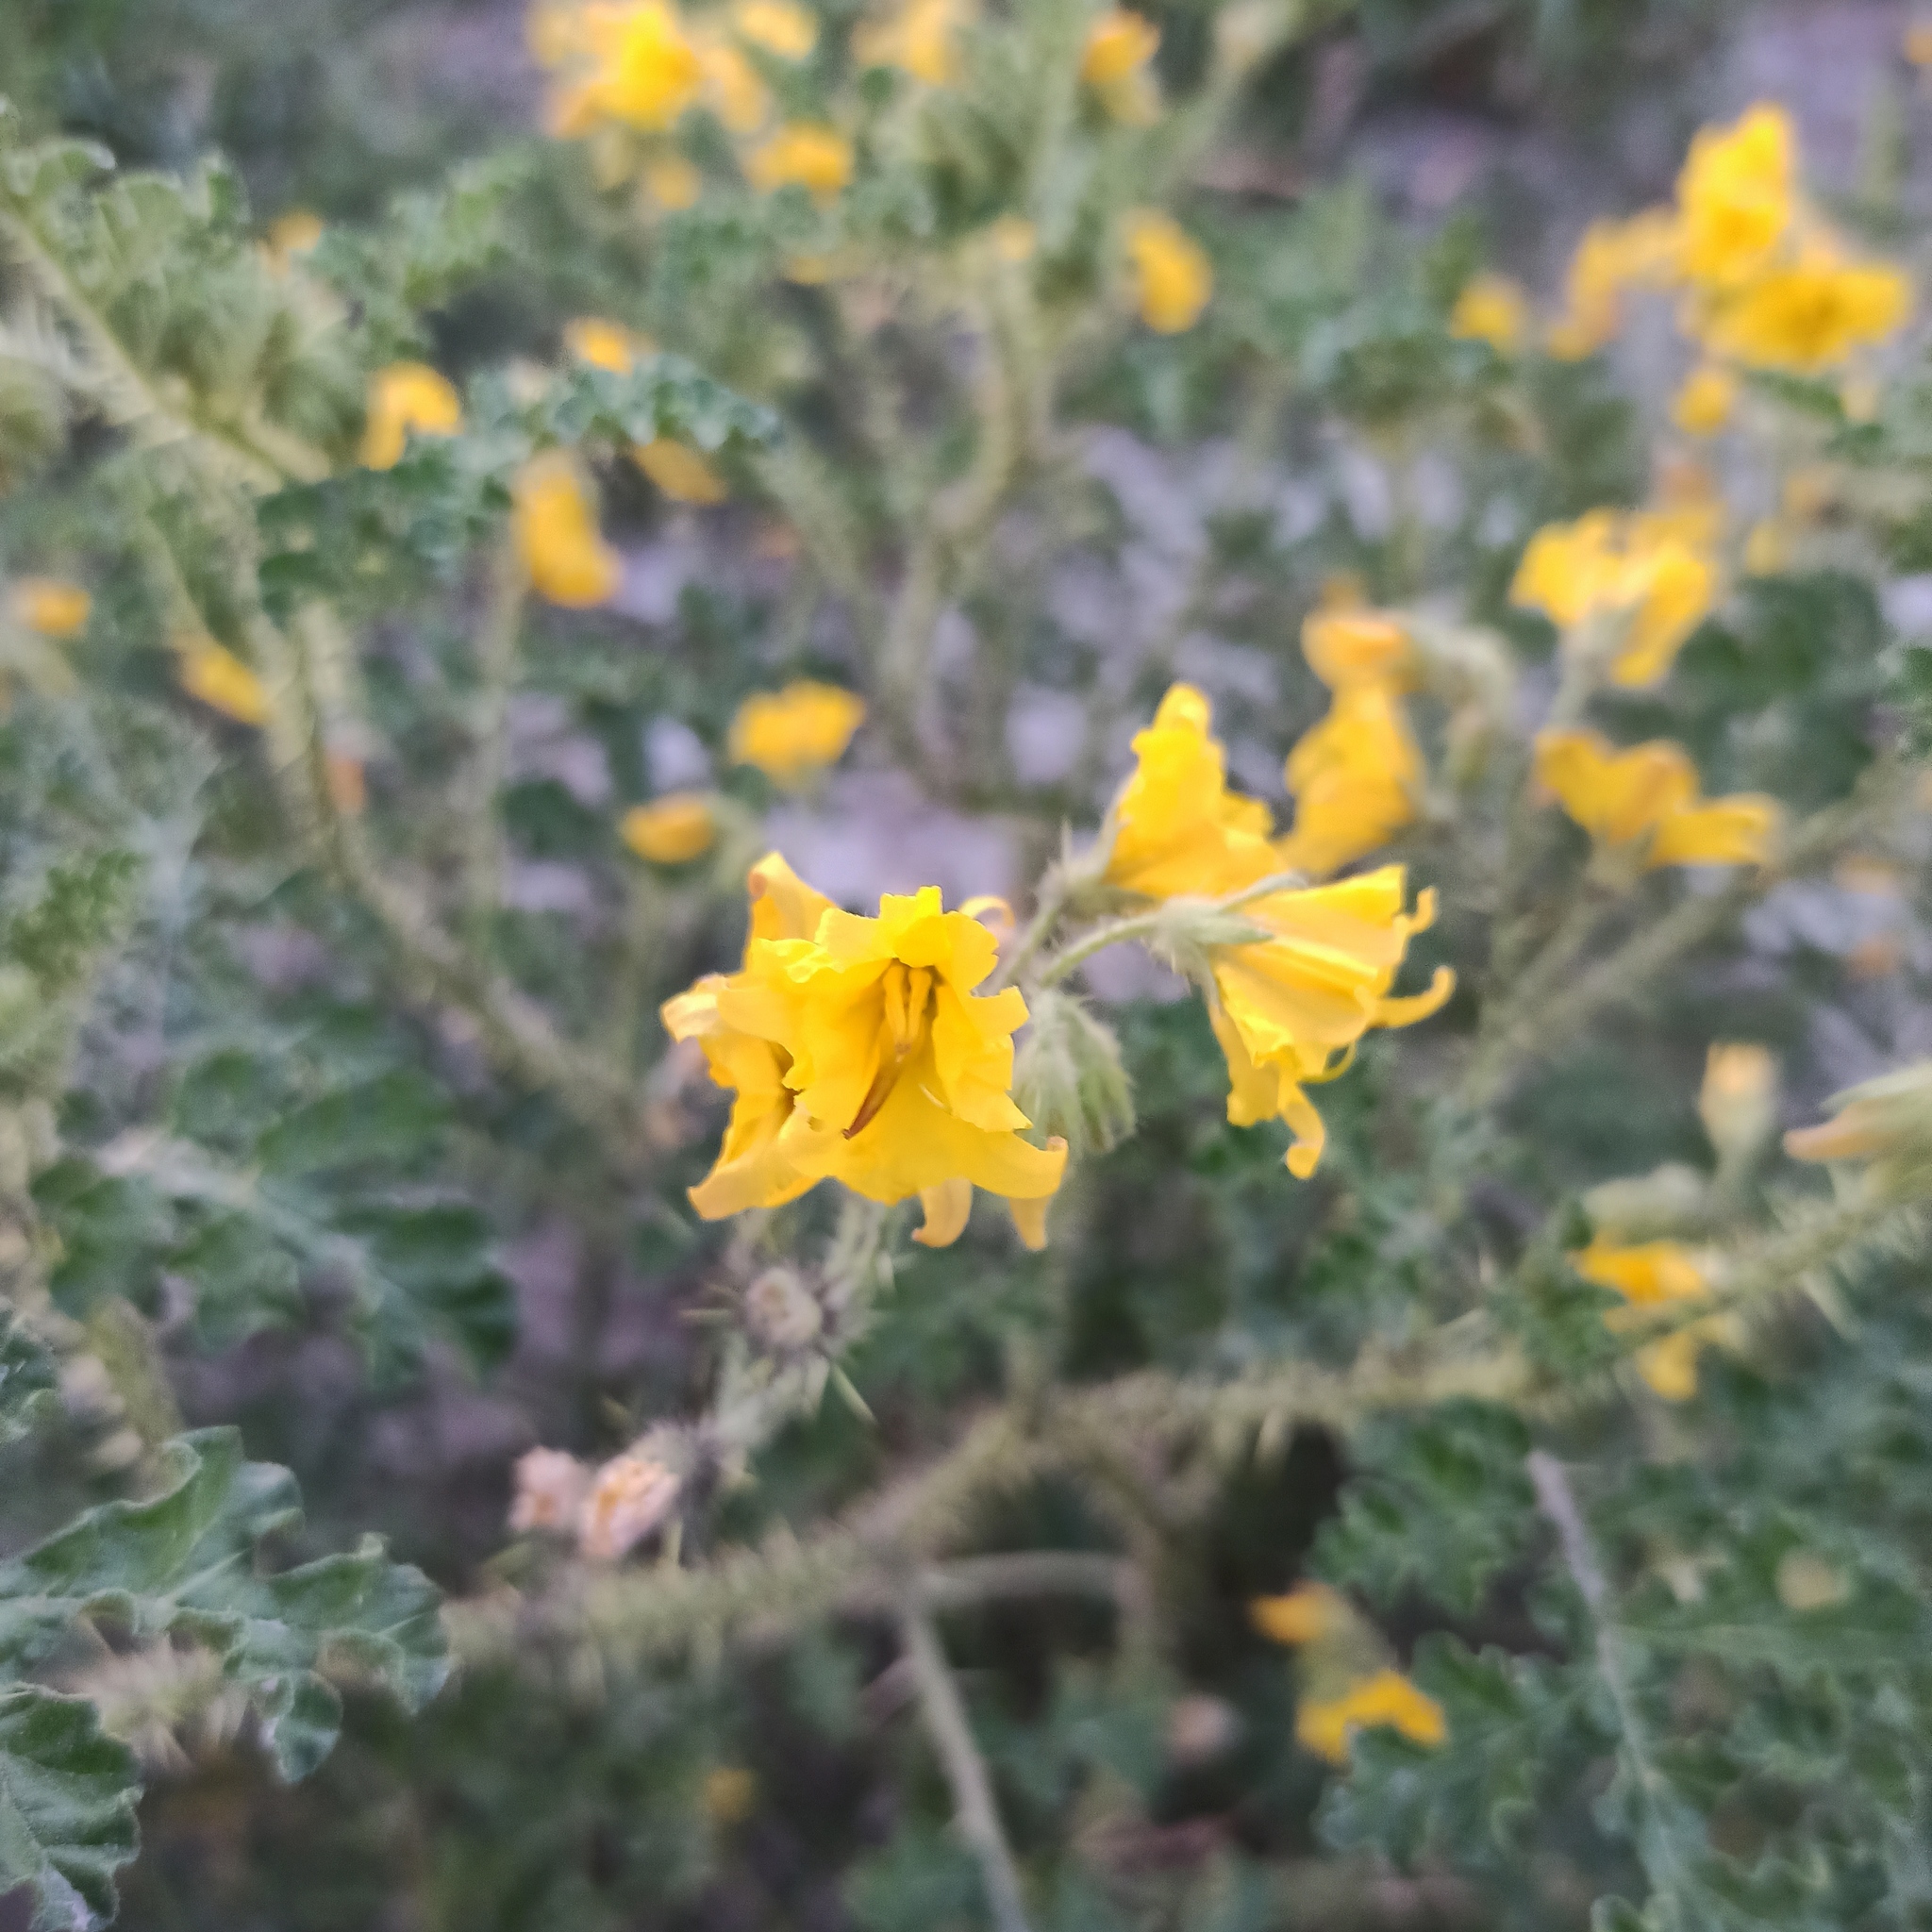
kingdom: Plantae
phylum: Tracheophyta
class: Magnoliopsida
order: Solanales
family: Solanaceae
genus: Solanum
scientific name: Solanum angustifolium
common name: Buffalobur nightshade
